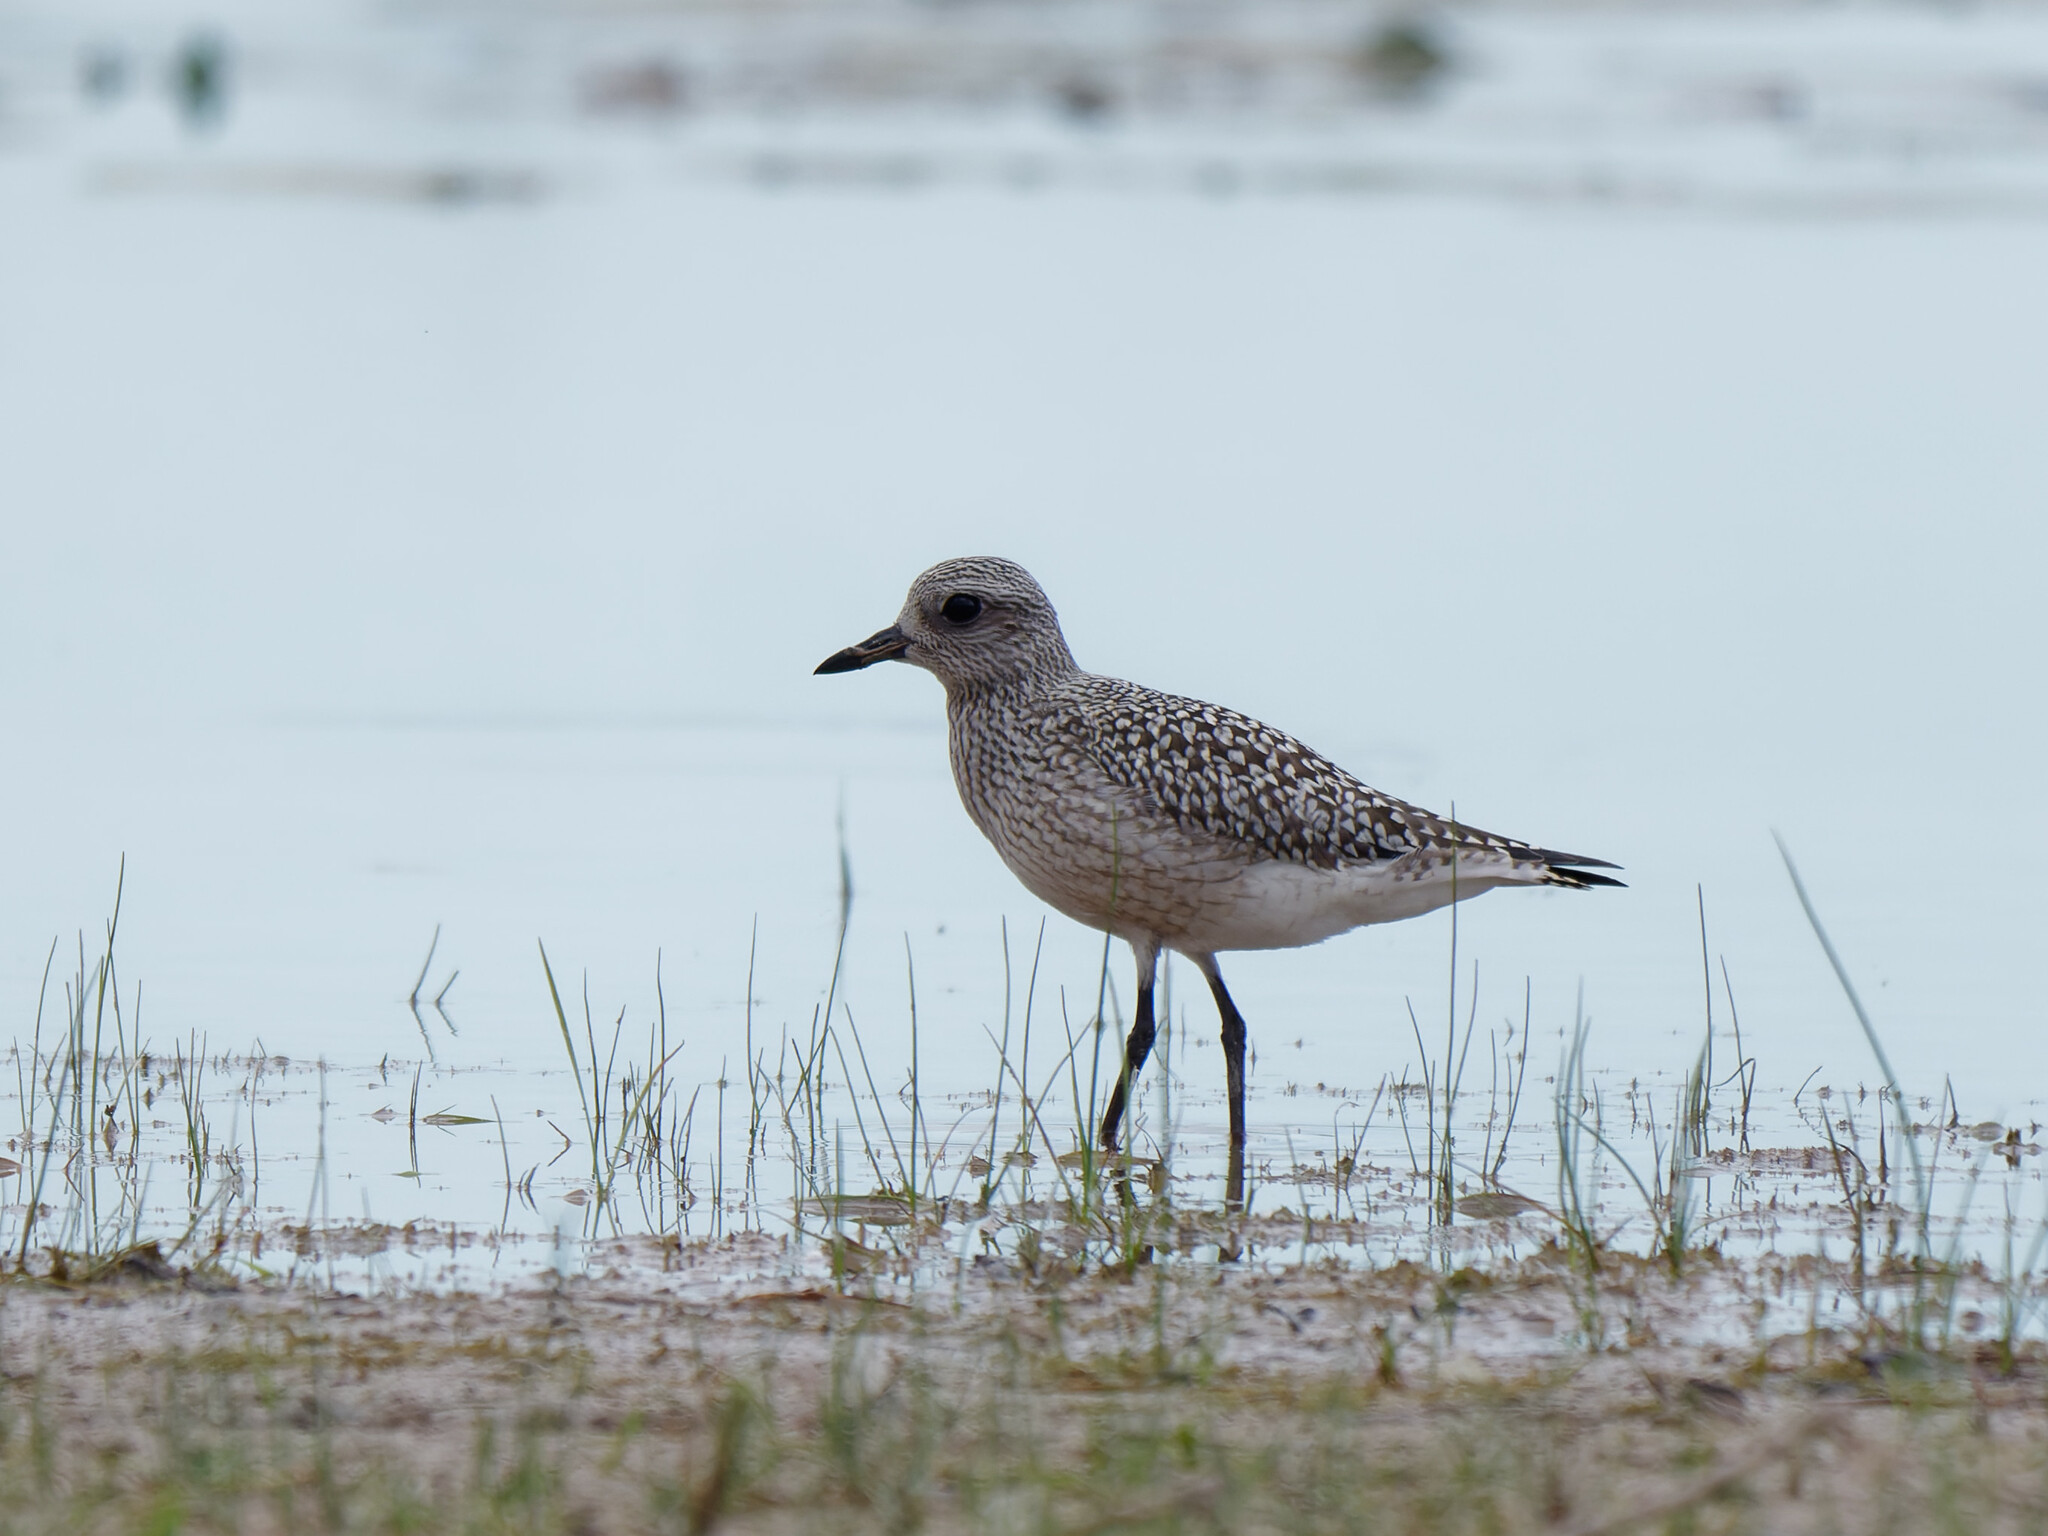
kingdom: Animalia
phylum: Chordata
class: Aves
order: Charadriiformes
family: Charadriidae
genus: Pluvialis
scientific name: Pluvialis squatarola
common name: Grey plover
